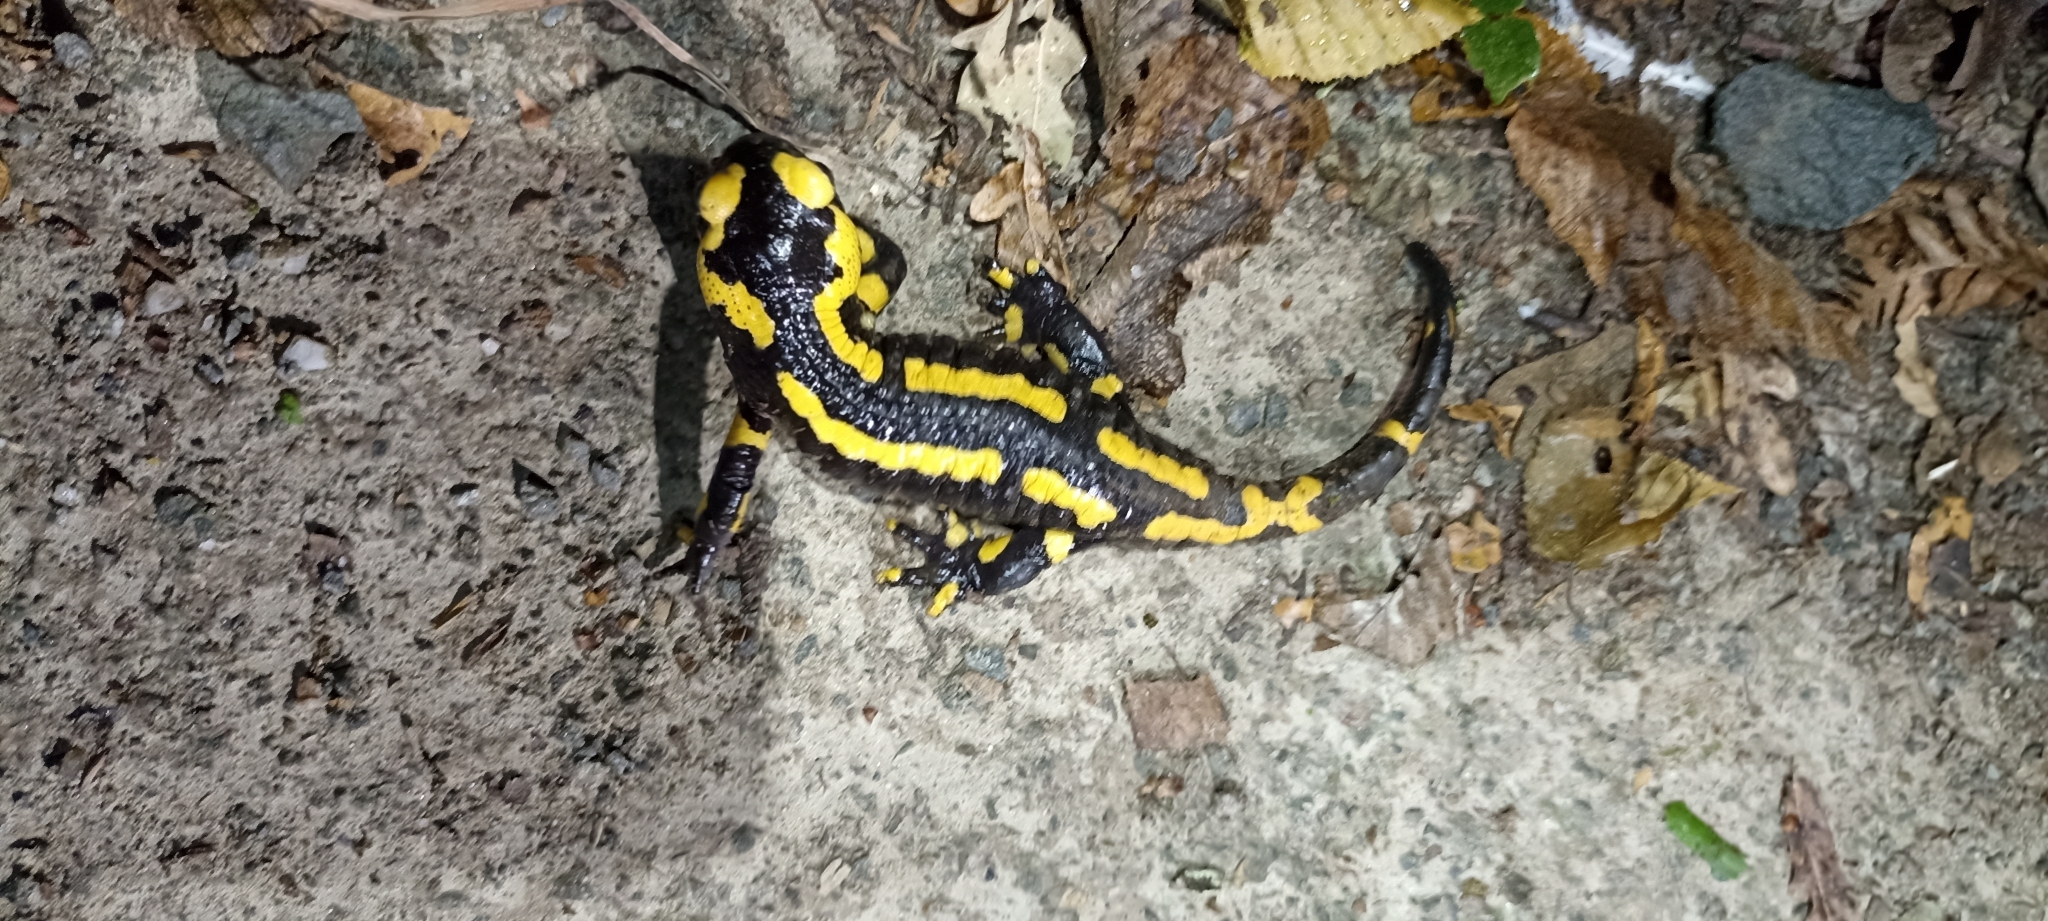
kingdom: Animalia
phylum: Chordata
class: Amphibia
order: Caudata
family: Salamandridae
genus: Salamandra
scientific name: Salamandra salamandra
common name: Fire salamander
